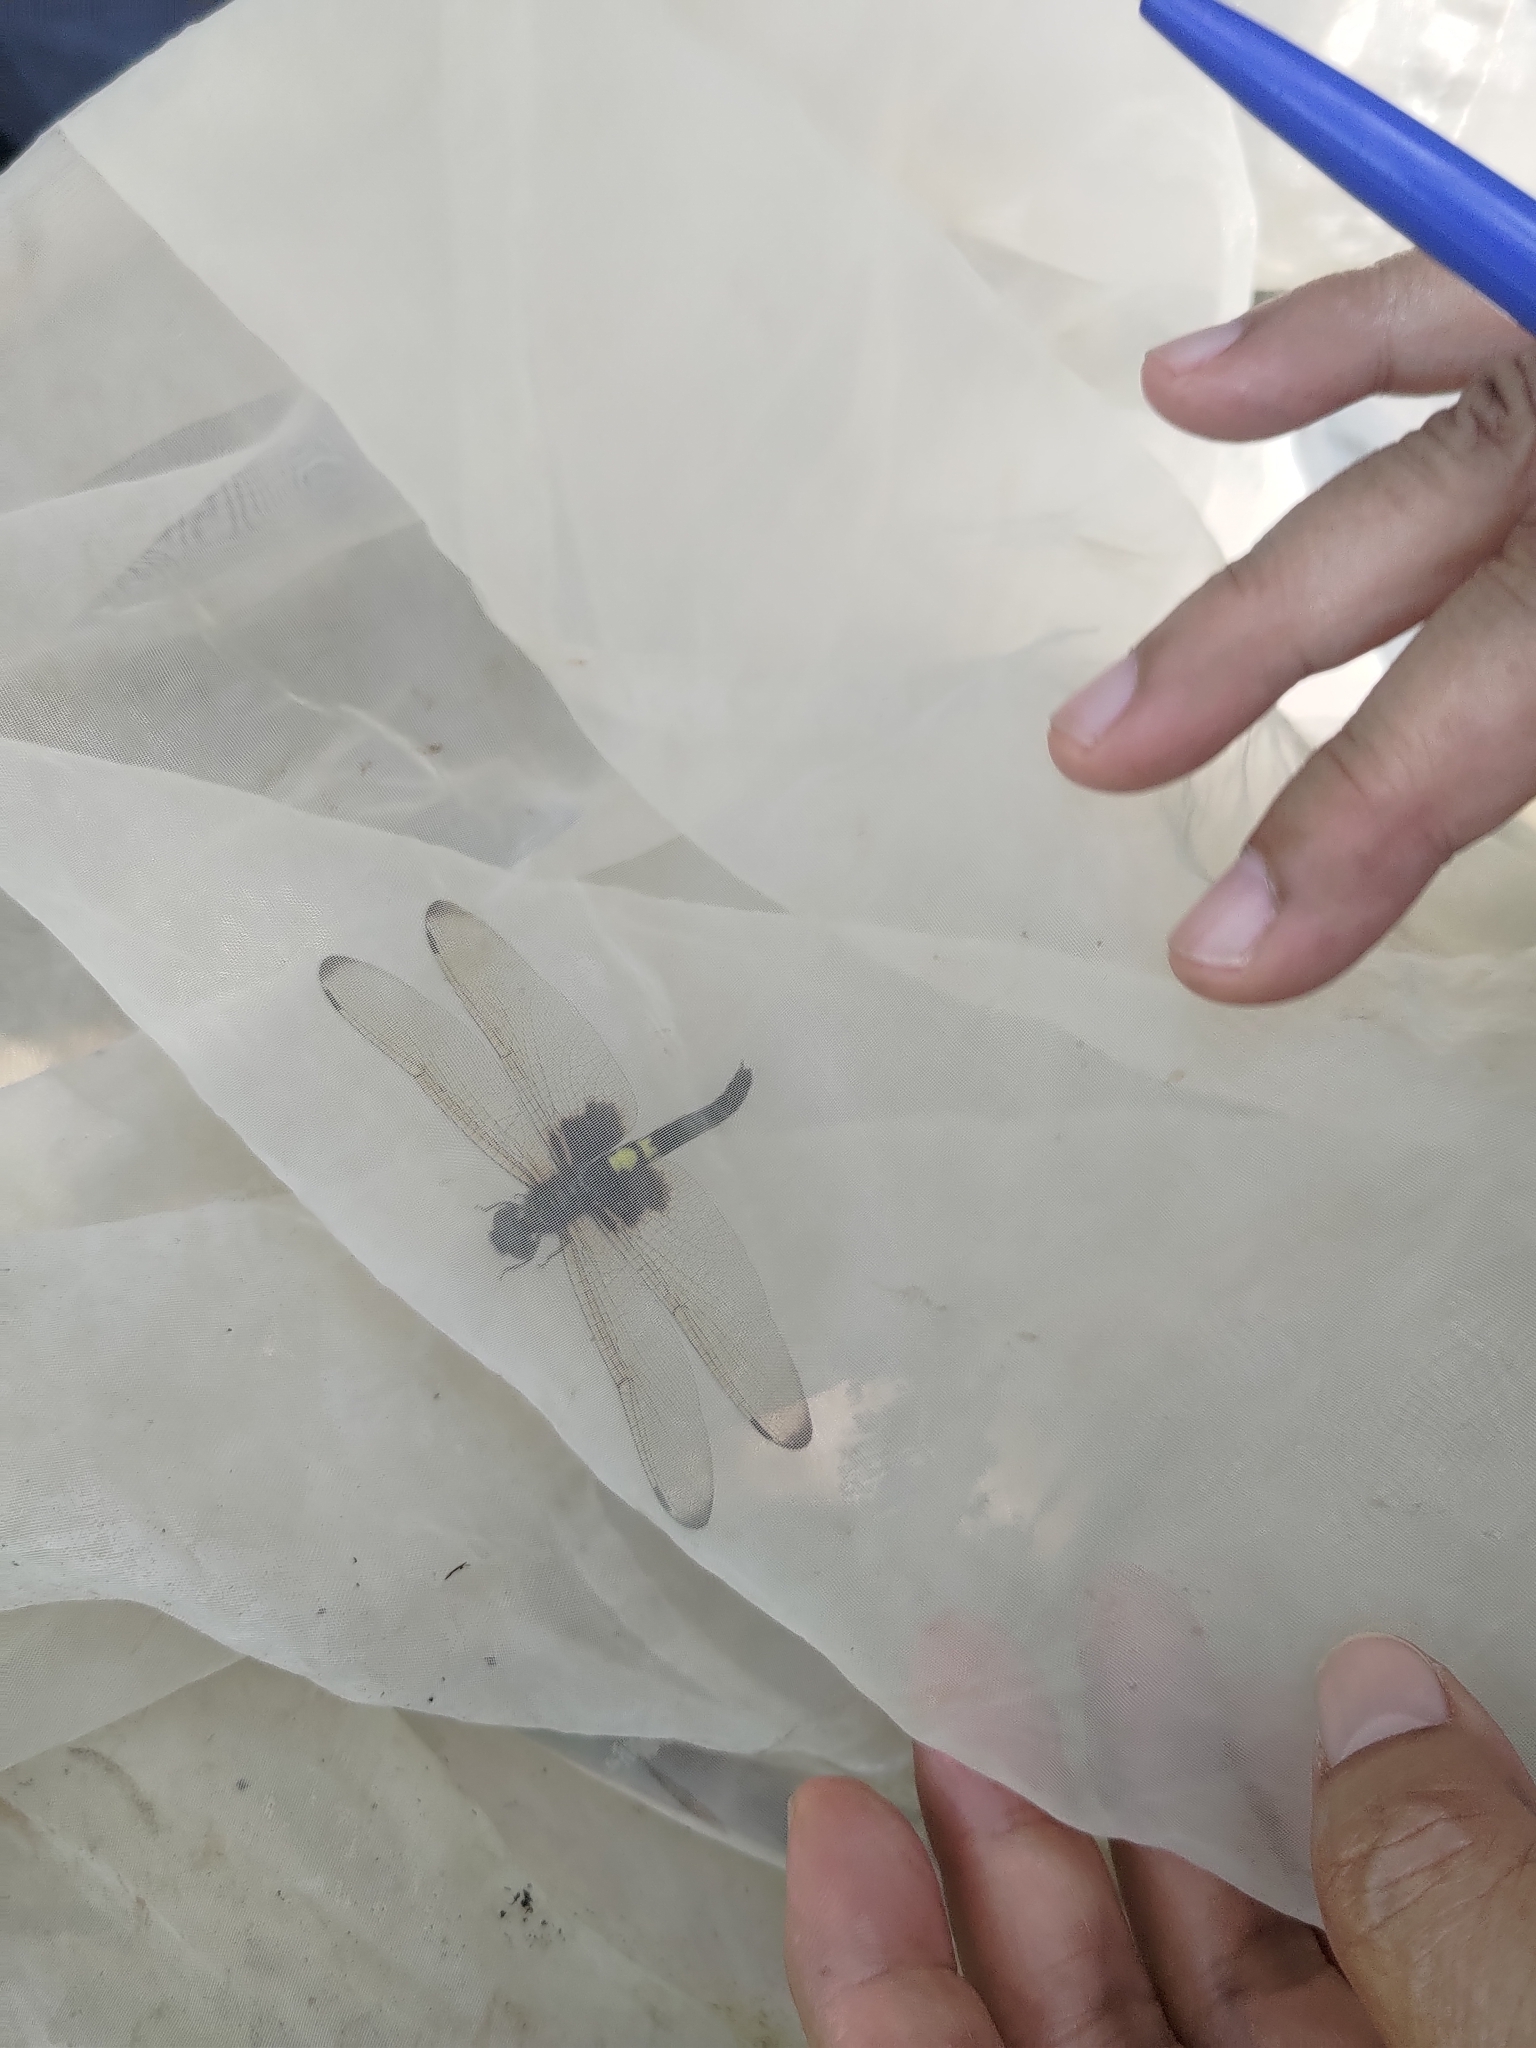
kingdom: Animalia
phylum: Arthropoda
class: Insecta
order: Odonata
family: Libellulidae
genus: Pseudothemis
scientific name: Pseudothemis zonata
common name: Pied skimmer
